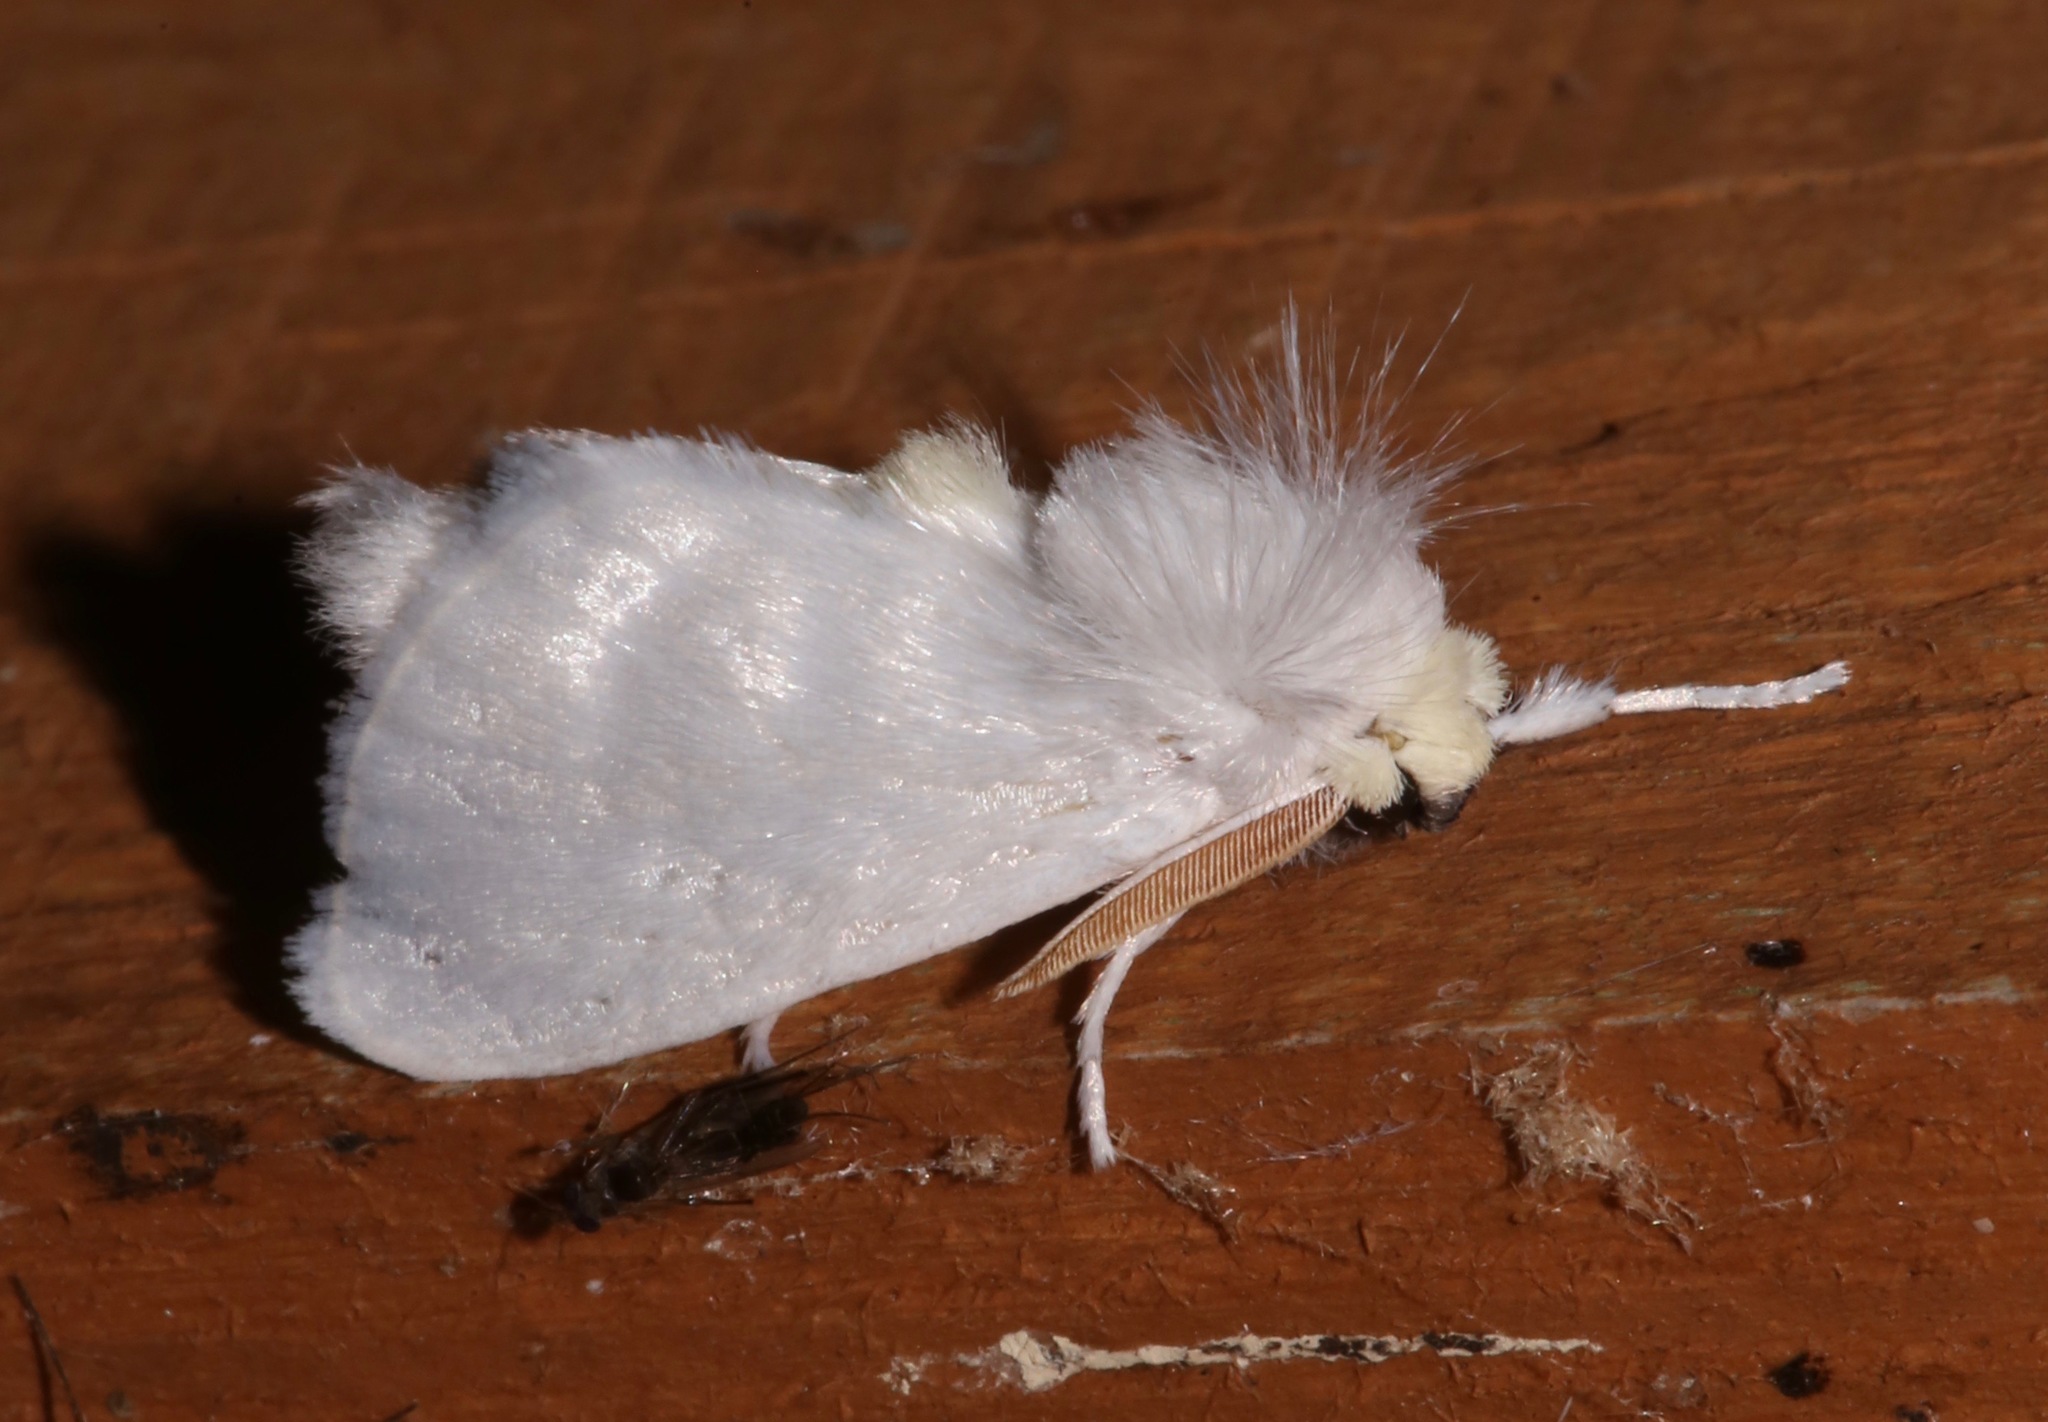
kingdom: Animalia
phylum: Arthropoda
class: Insecta
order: Lepidoptera
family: Megalopygidae
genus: Norape
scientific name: Norape cretata
